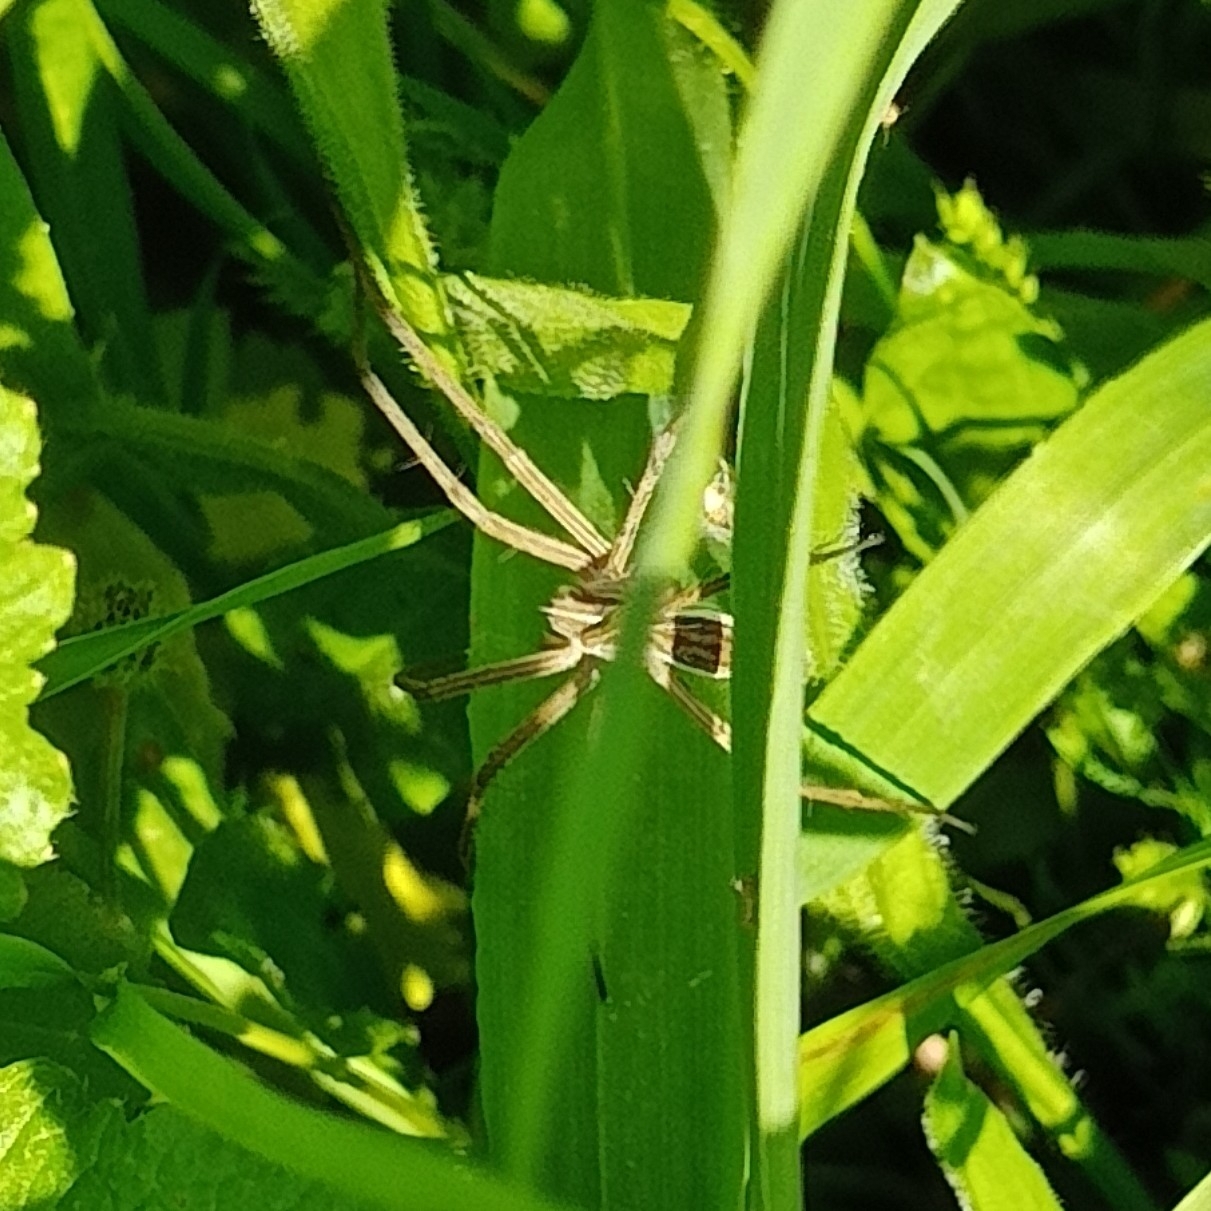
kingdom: Animalia
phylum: Arthropoda
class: Arachnida
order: Araneae
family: Pisauridae
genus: Pisaura
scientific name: Pisaura mirabilis
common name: Tent spider
